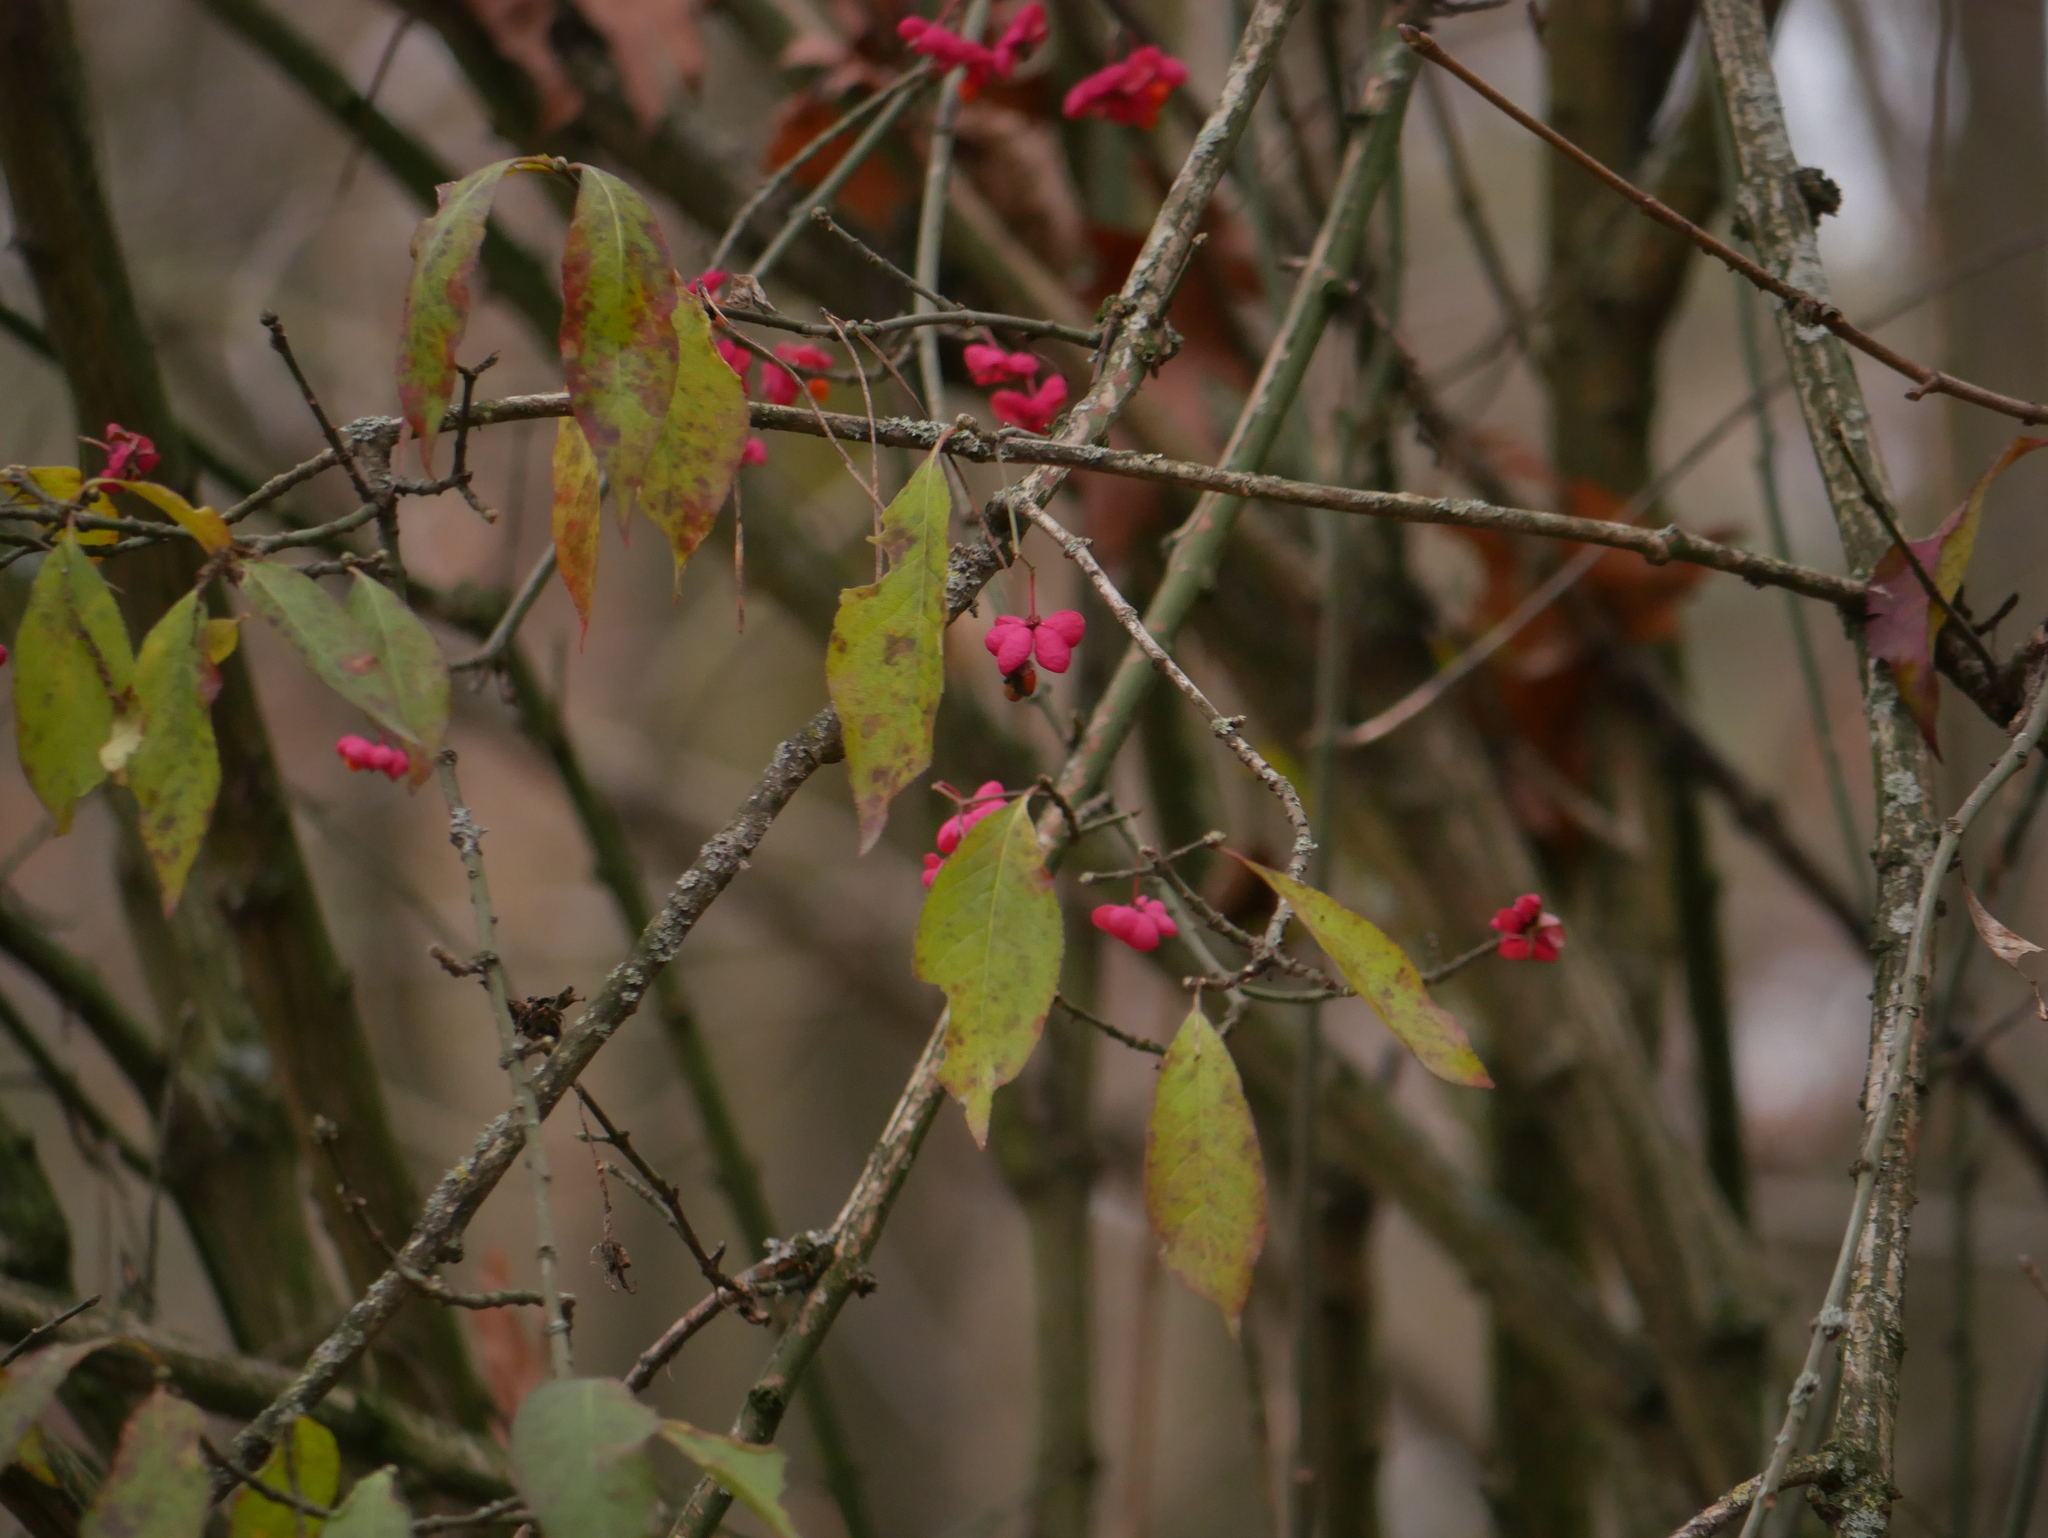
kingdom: Plantae
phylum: Tracheophyta
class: Magnoliopsida
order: Celastrales
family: Celastraceae
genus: Euonymus
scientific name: Euonymus europaeus
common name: Spindle
